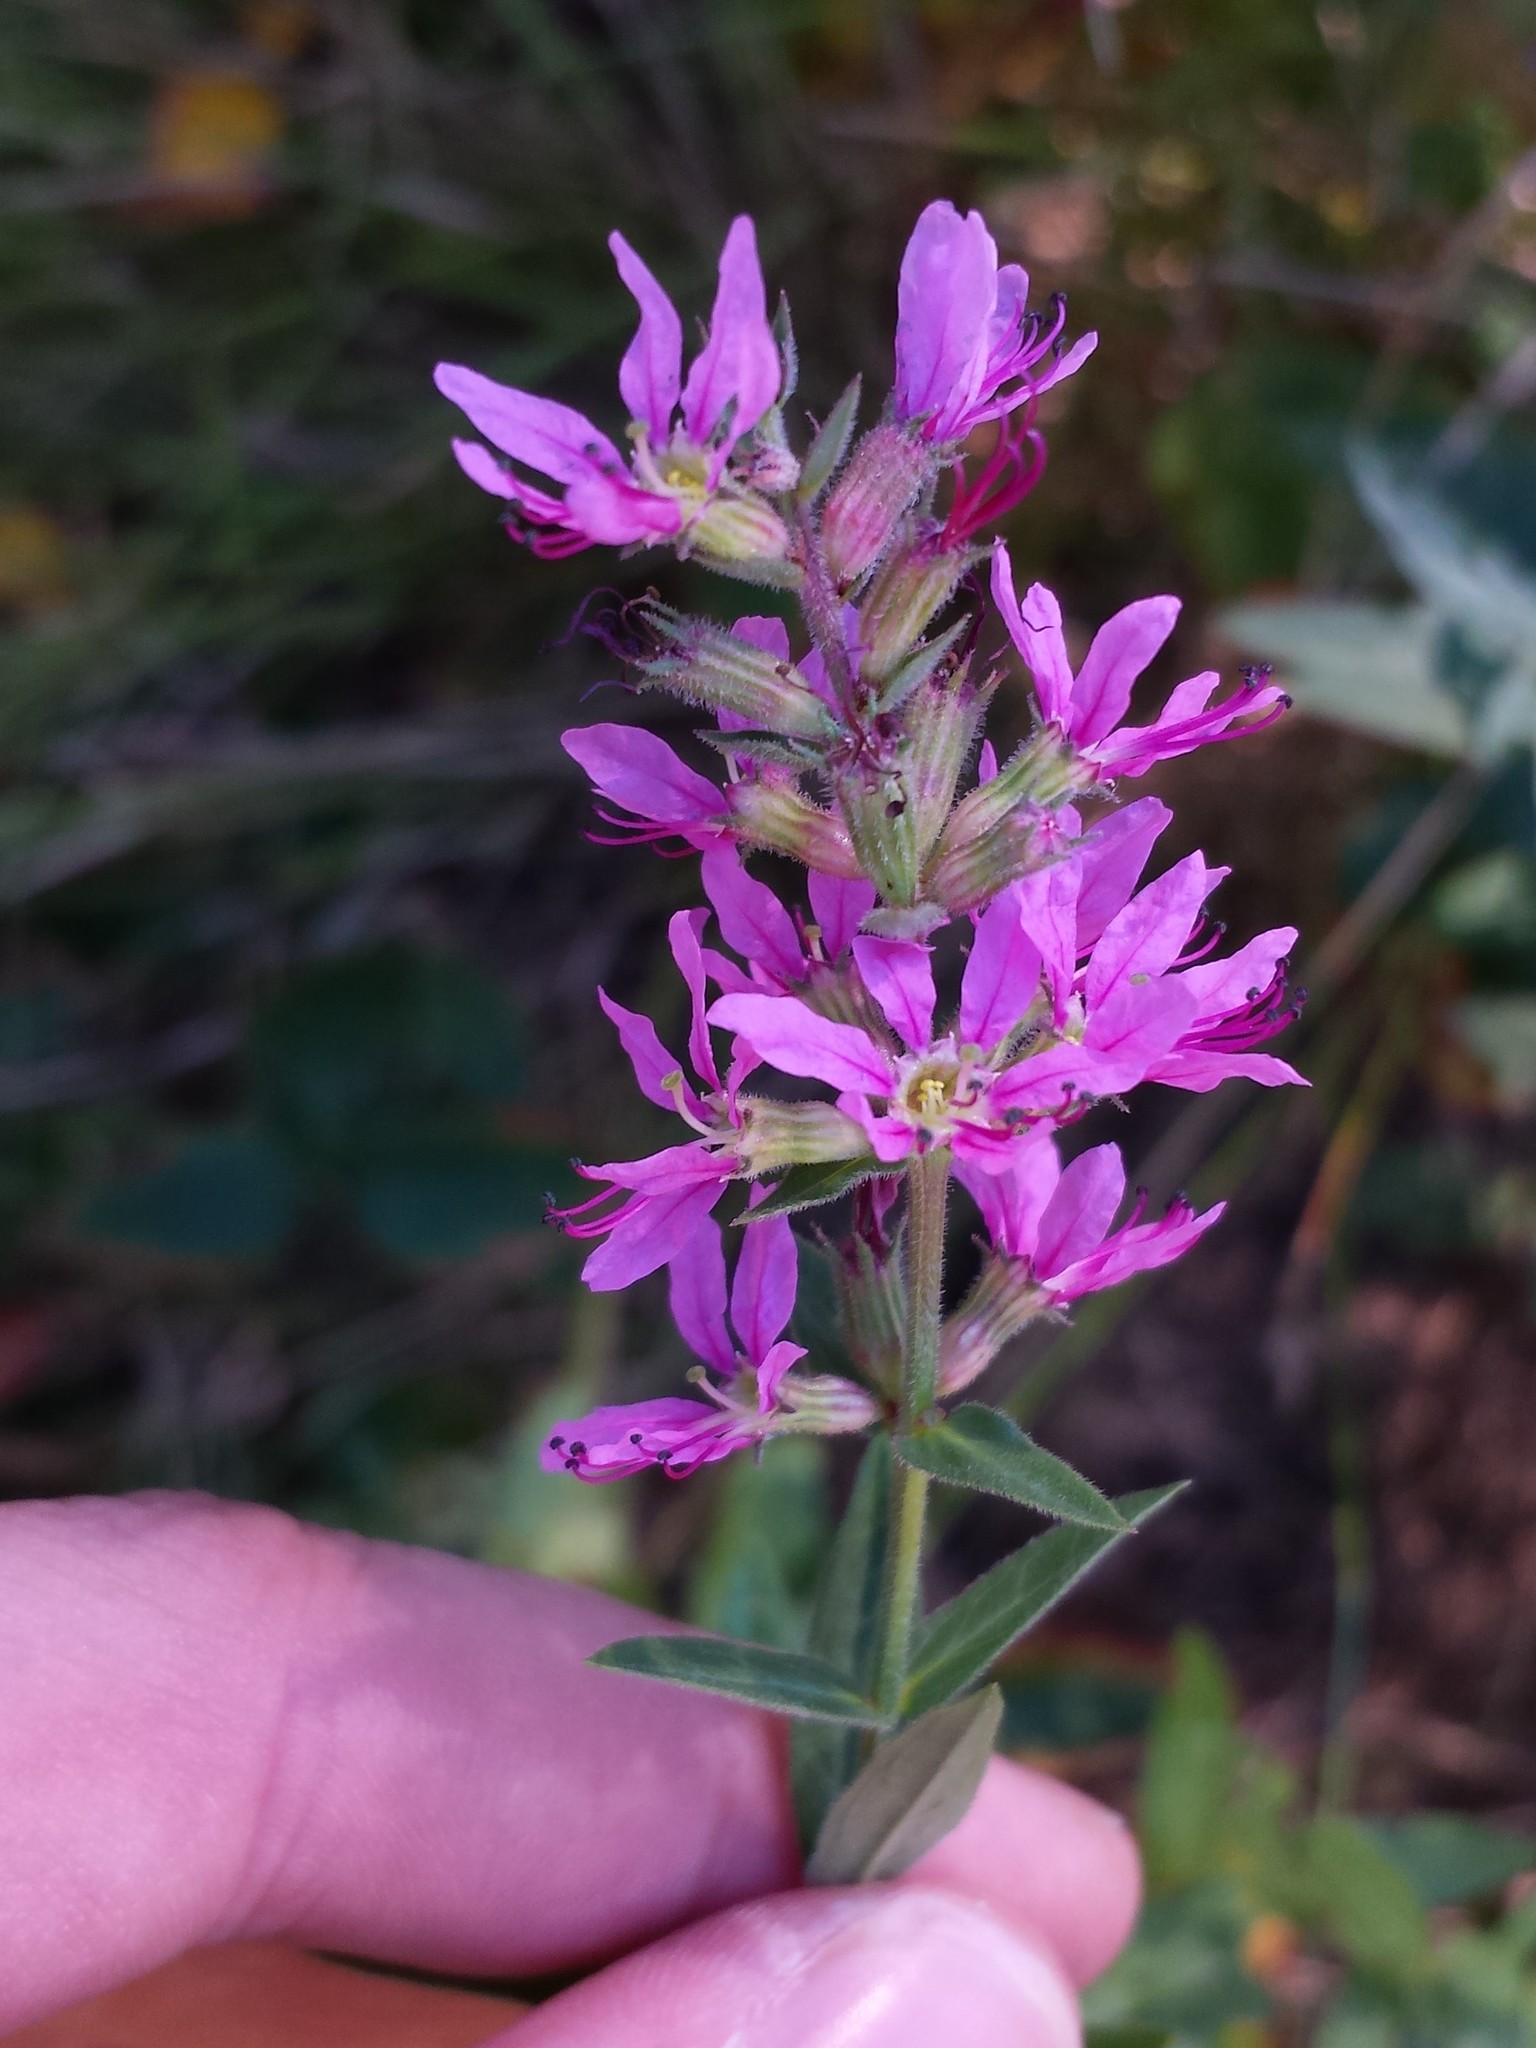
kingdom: Plantae
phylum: Tracheophyta
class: Magnoliopsida
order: Myrtales
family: Lythraceae
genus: Lythrum
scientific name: Lythrum salicaria
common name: Purple loosestrife
